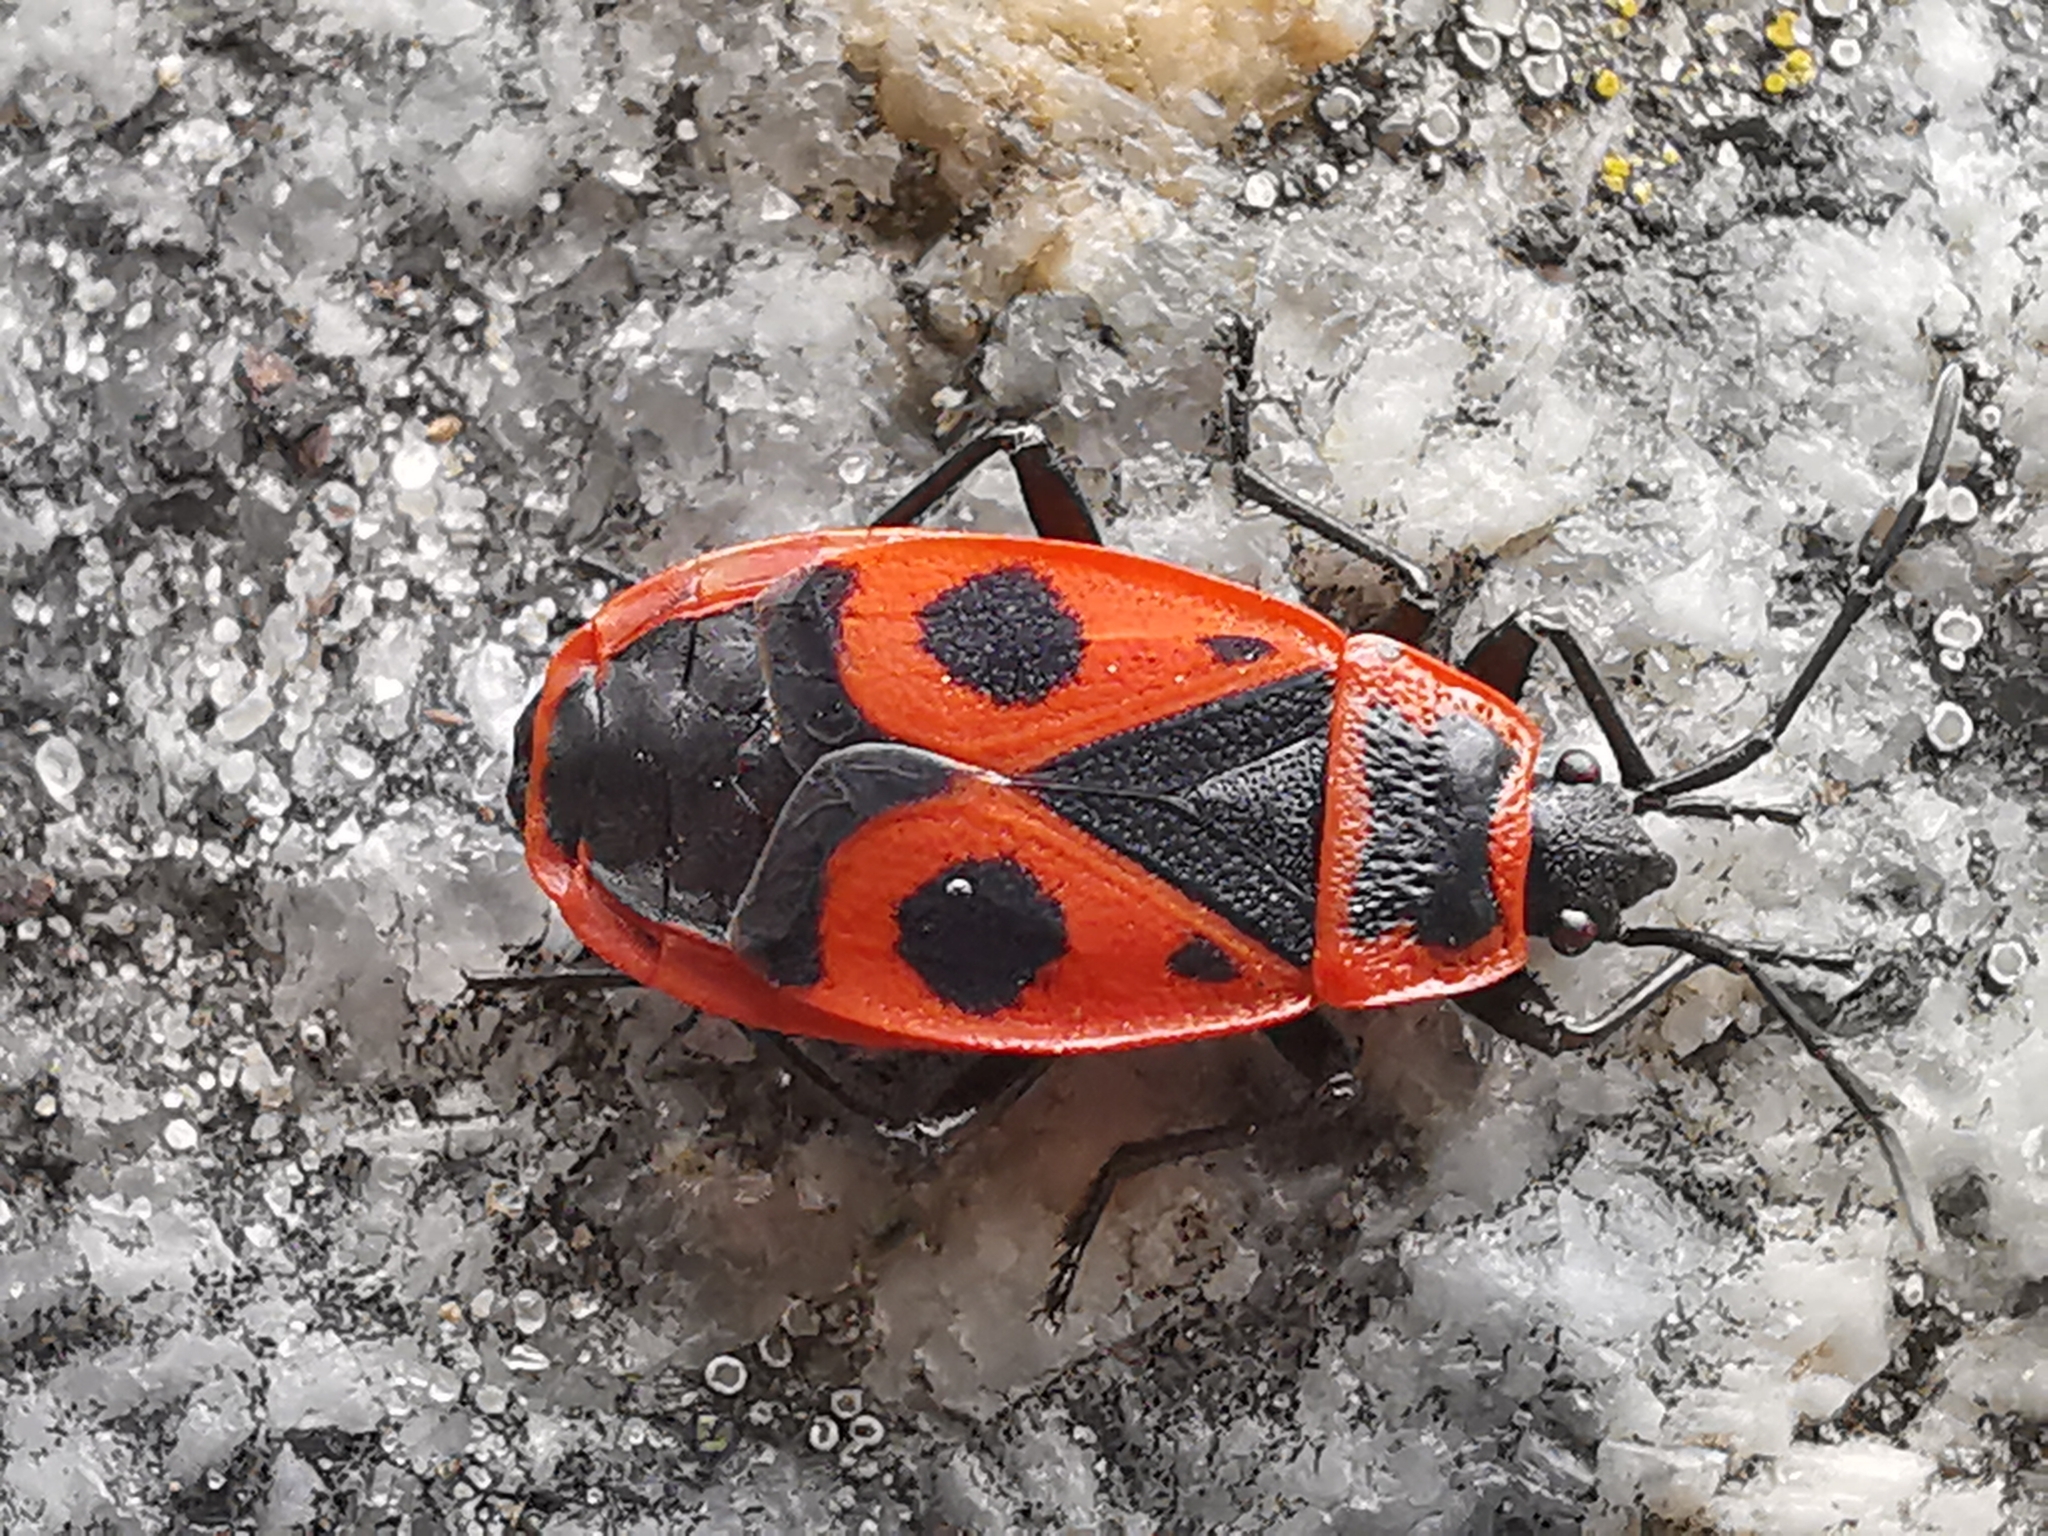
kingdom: Animalia
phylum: Arthropoda
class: Insecta
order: Hemiptera
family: Pyrrhocoridae
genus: Pyrrhocoris
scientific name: Pyrrhocoris apterus
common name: Firebug
